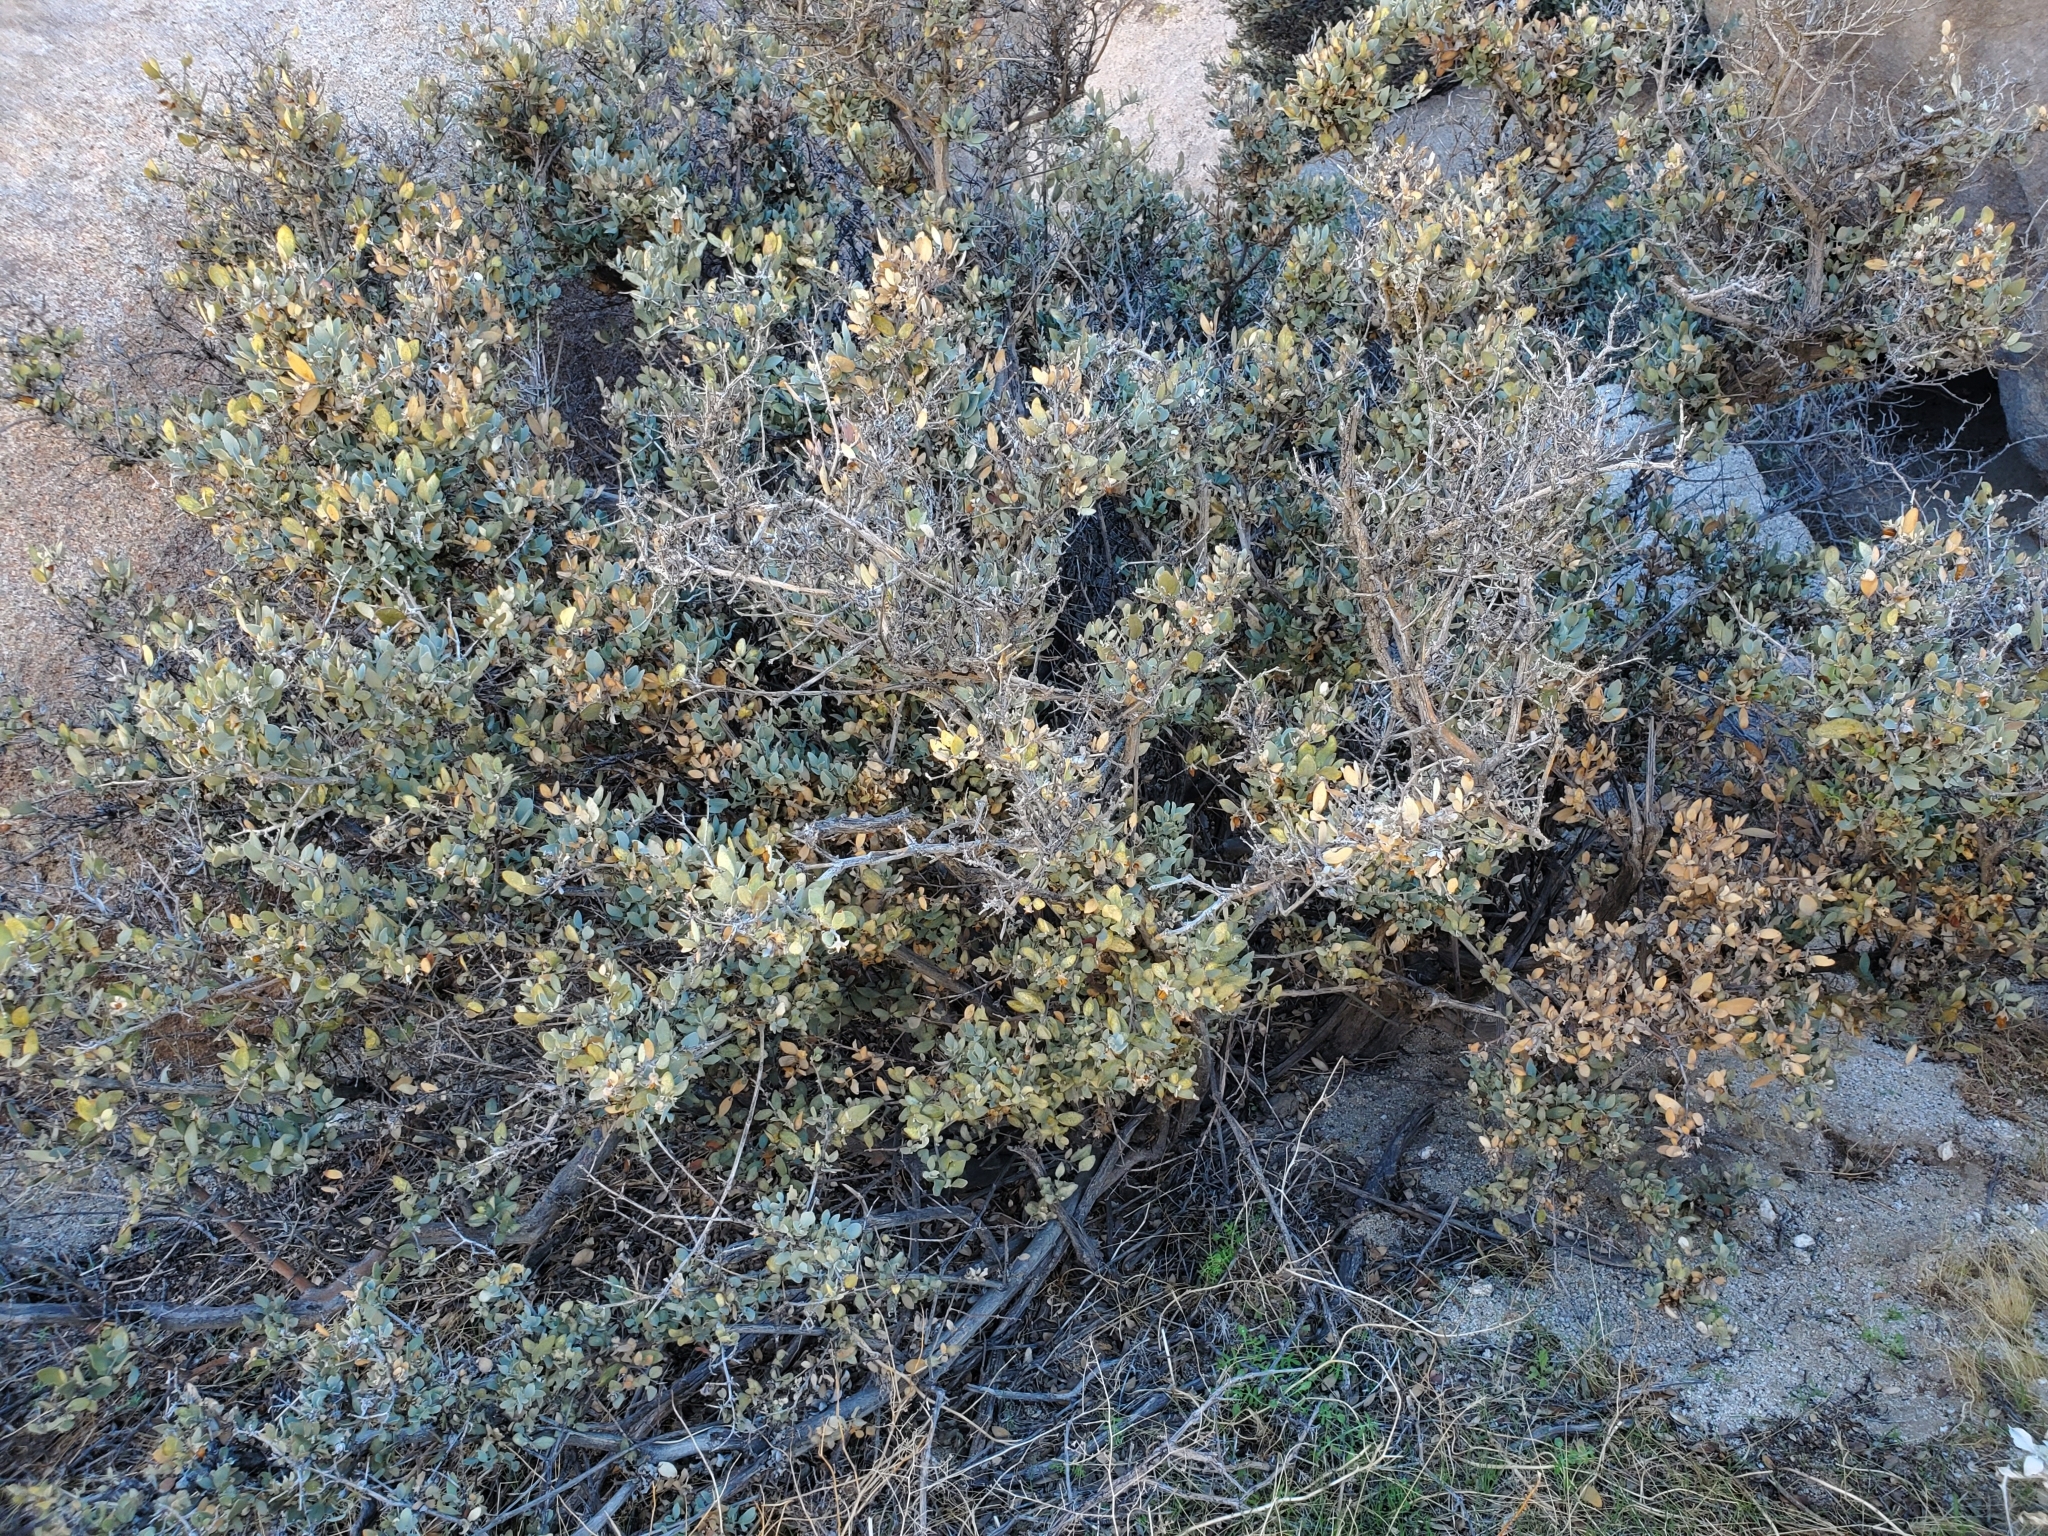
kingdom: Plantae
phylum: Tracheophyta
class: Magnoliopsida
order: Caryophyllales
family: Simmondsiaceae
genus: Simmondsia
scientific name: Simmondsia chinensis
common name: Jojoba
